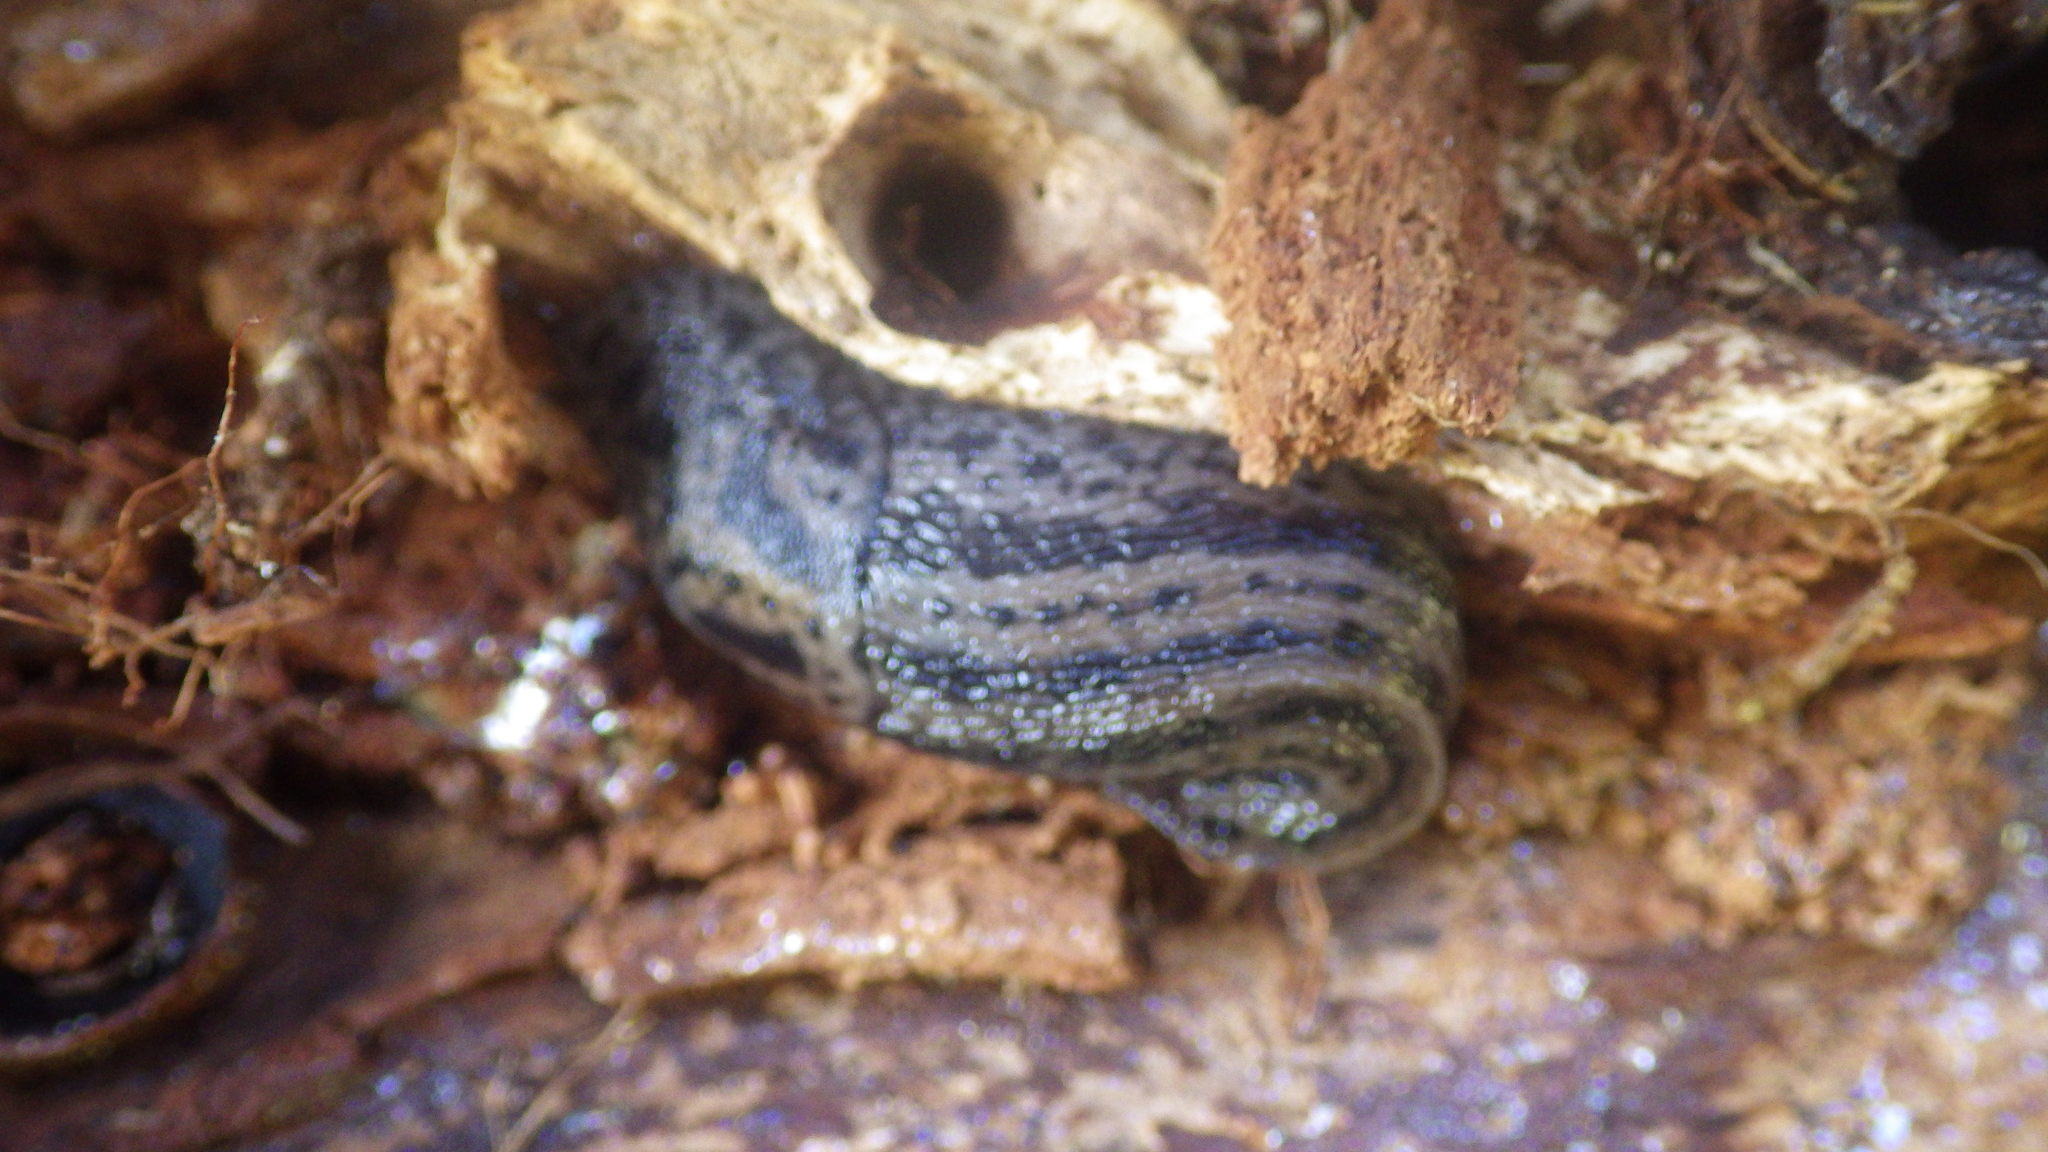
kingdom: Animalia
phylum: Mollusca
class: Gastropoda
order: Stylommatophora
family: Limacidae
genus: Limax
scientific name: Limax maximus
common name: Great grey slug
